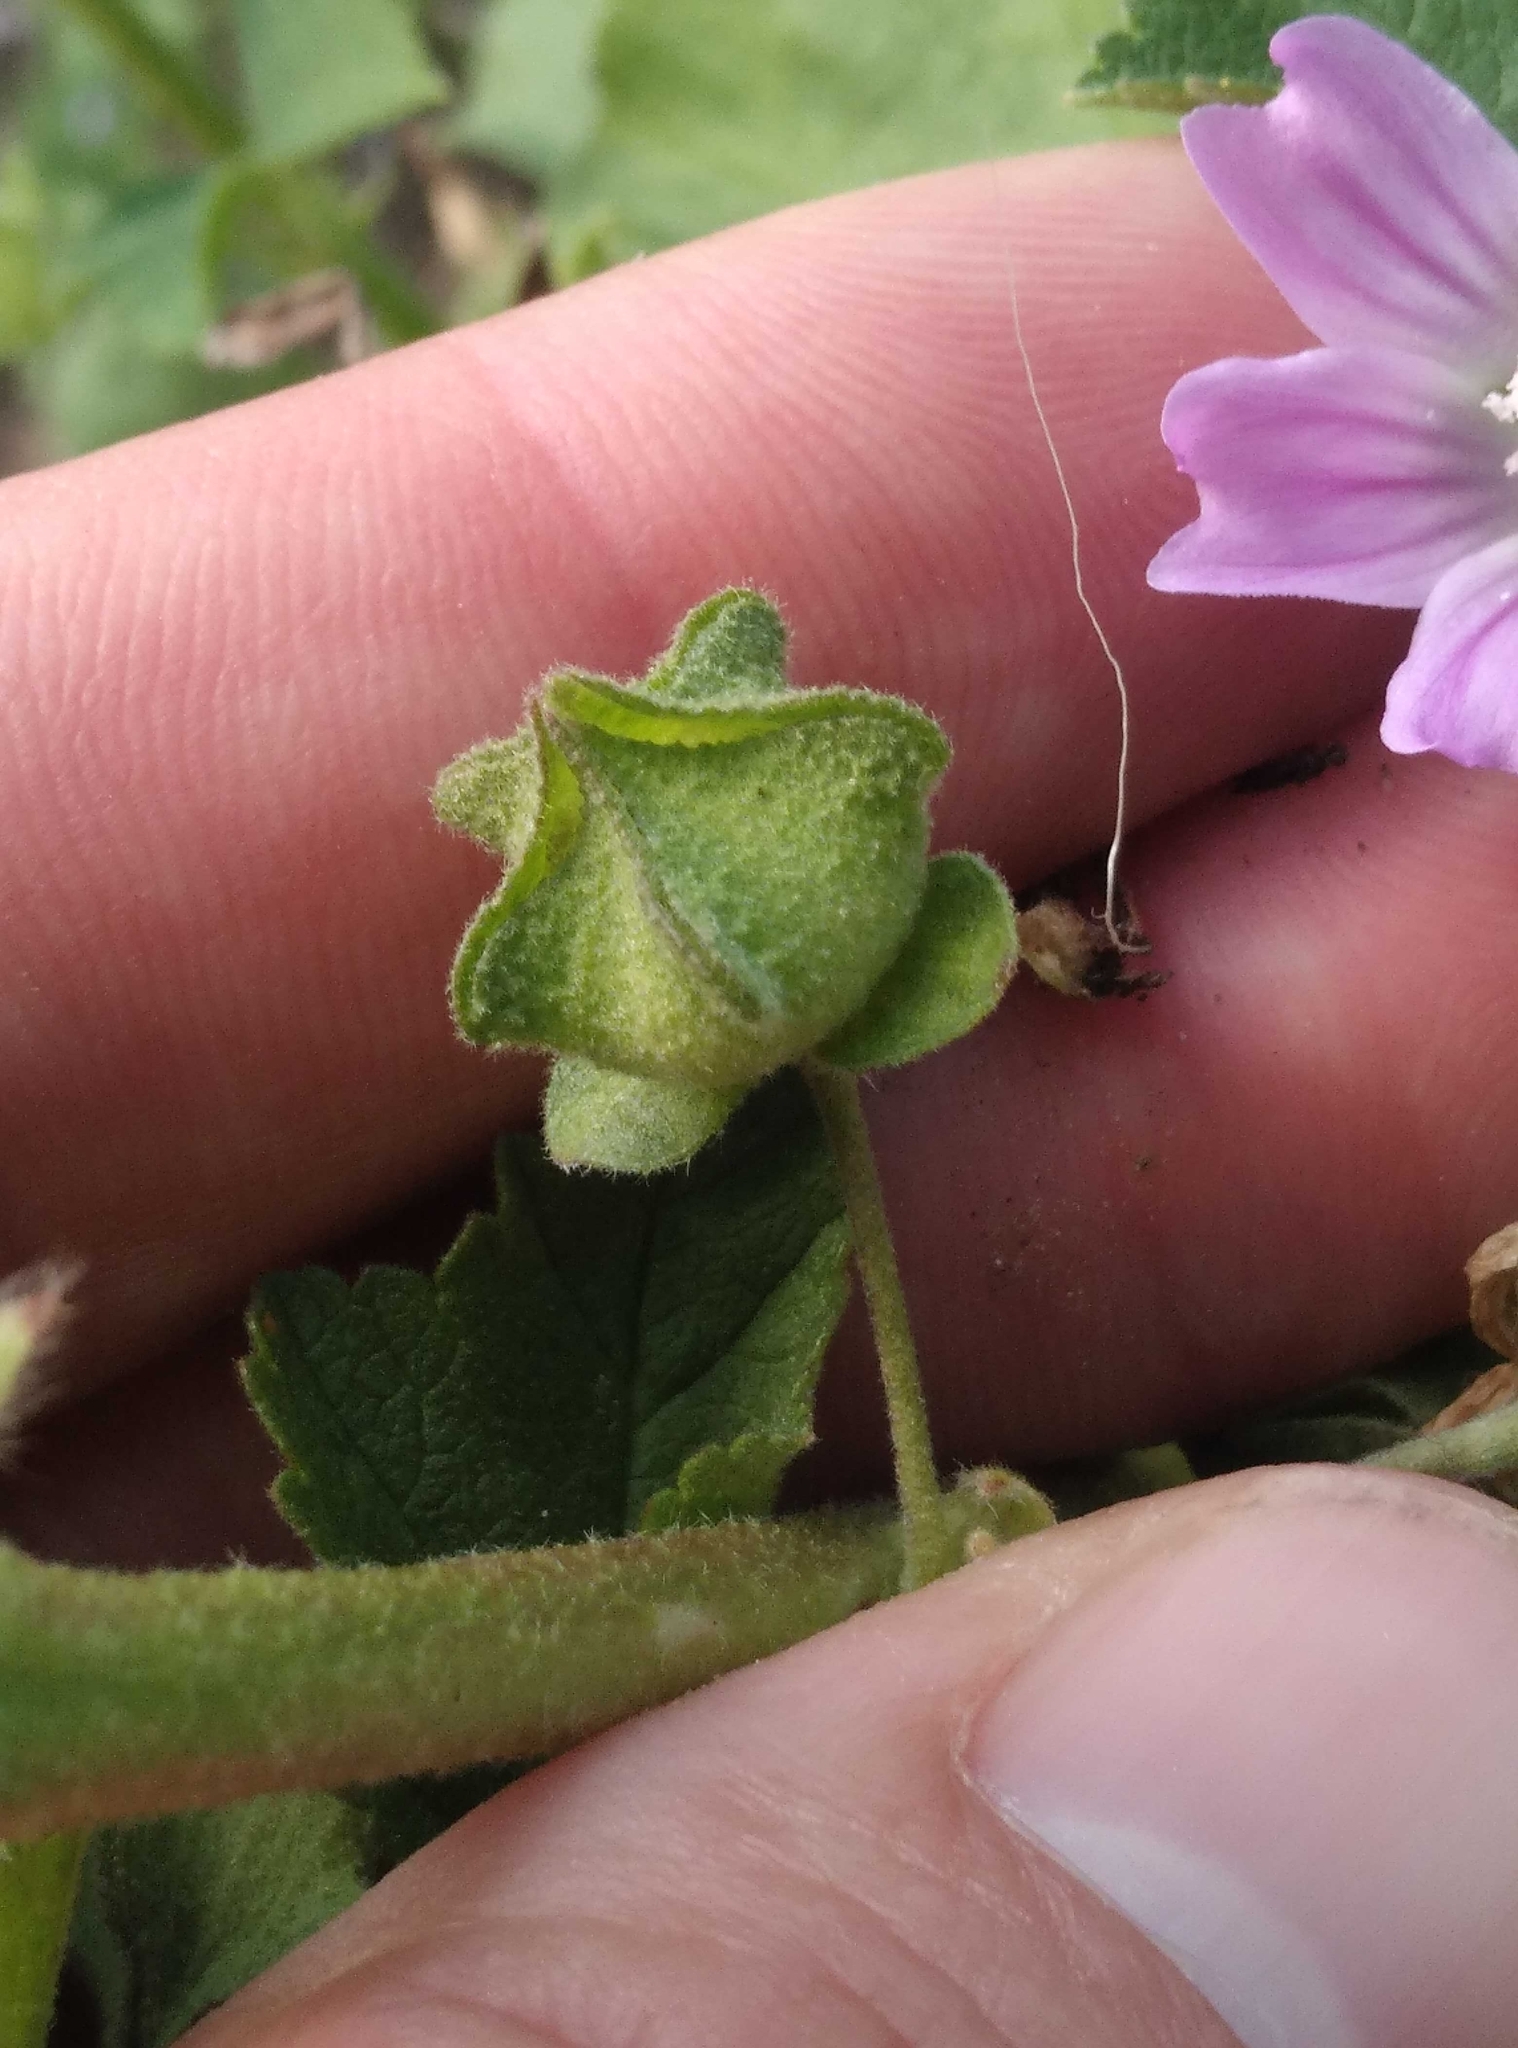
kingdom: Plantae
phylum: Tracheophyta
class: Magnoliopsida
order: Malvales
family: Malvaceae
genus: Malva
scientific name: Malva multiflora
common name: Cheeseweed
